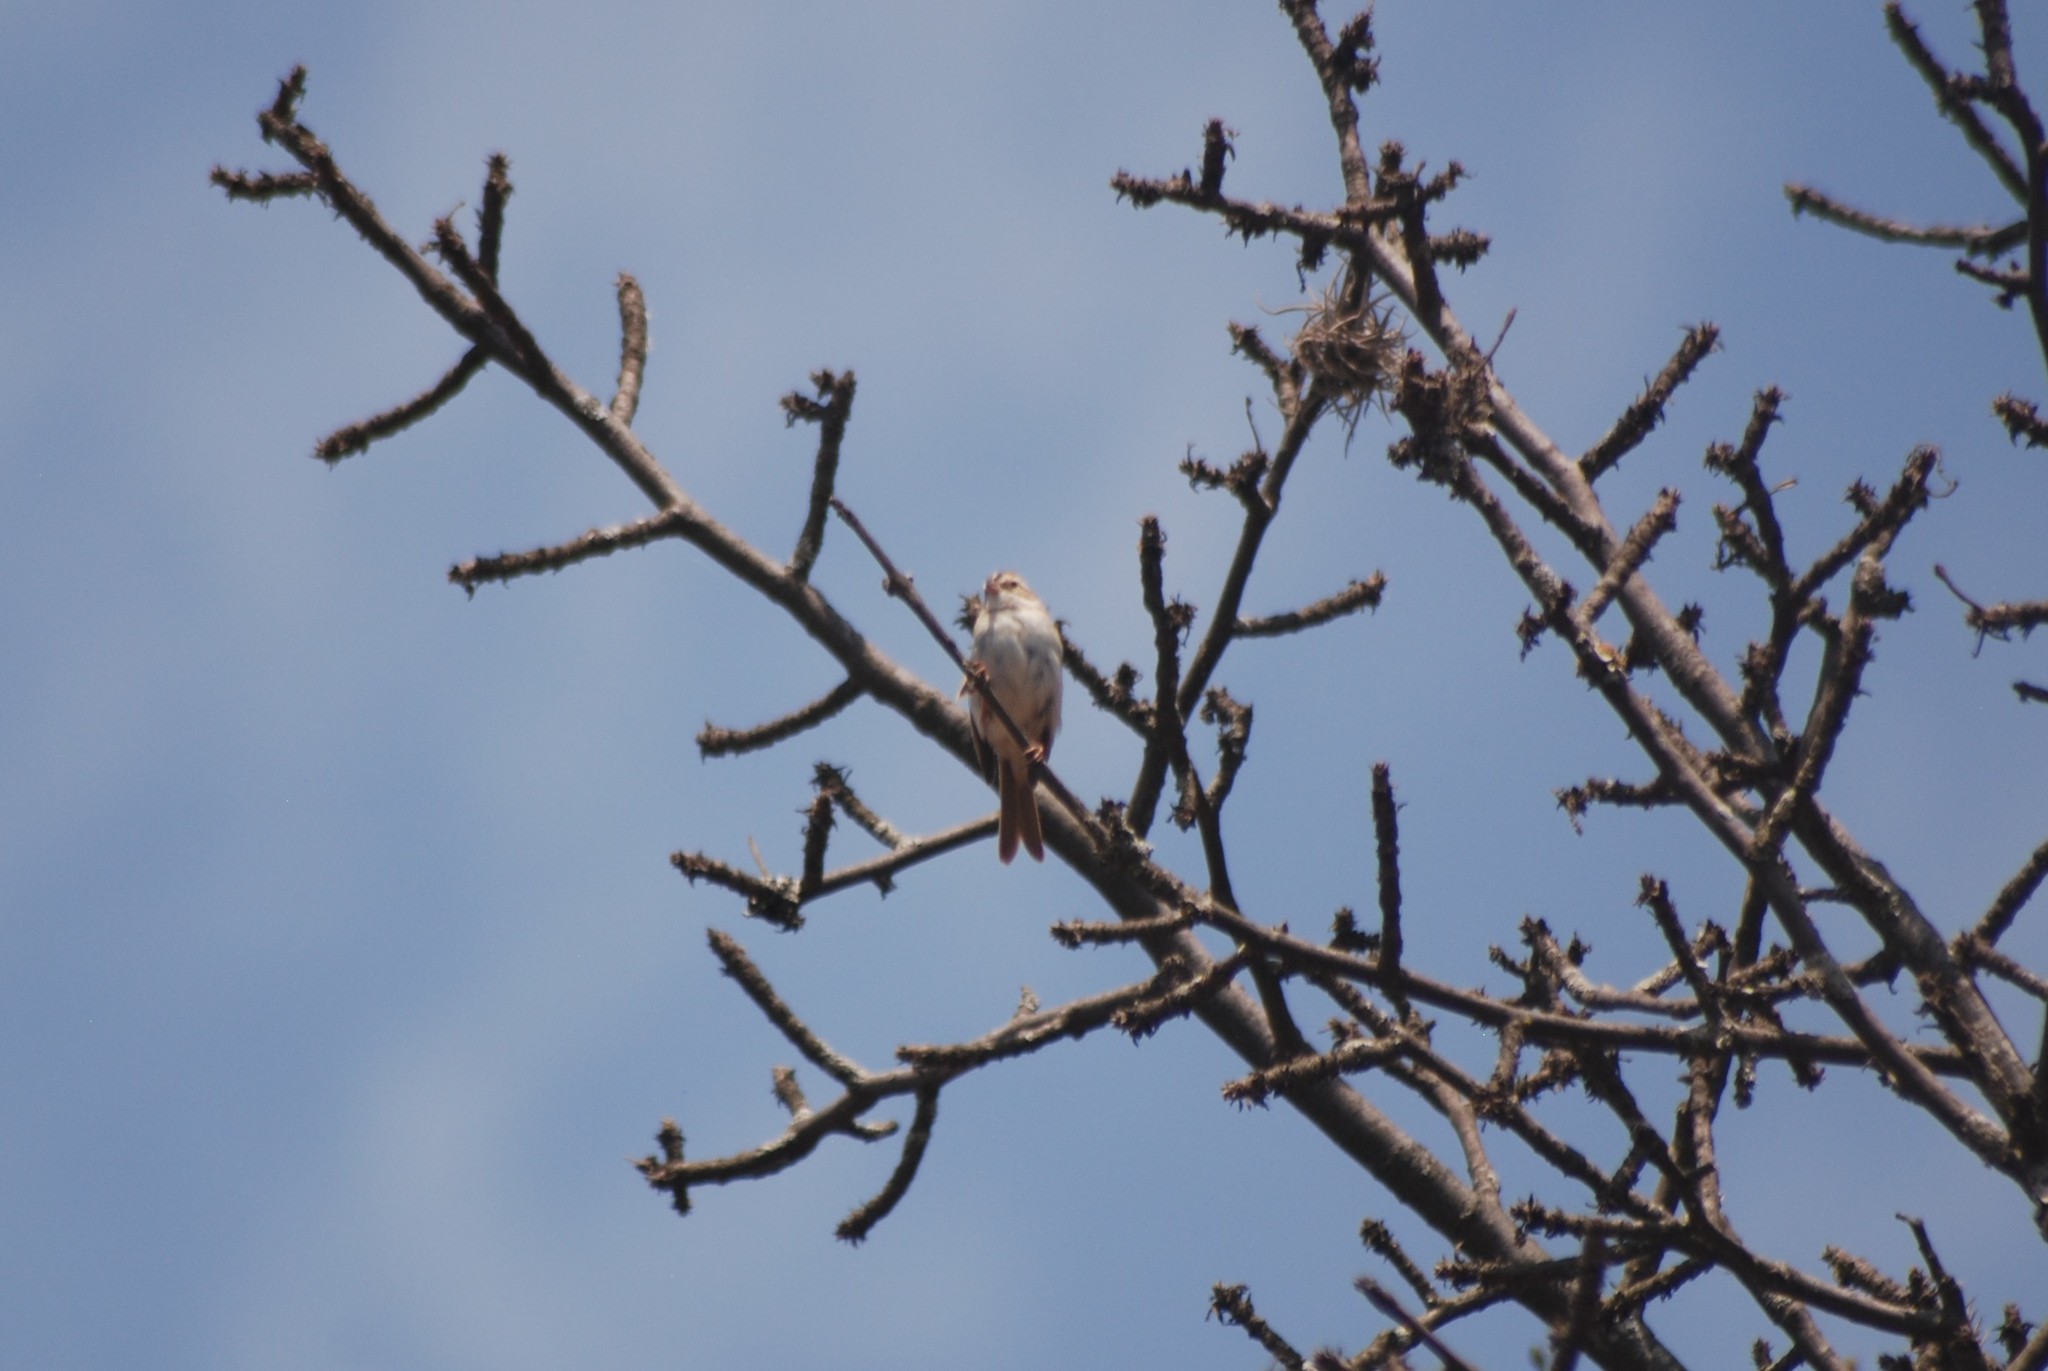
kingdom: Animalia
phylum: Chordata
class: Aves
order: Passeriformes
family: Passerellidae
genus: Spizella
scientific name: Spizella pallida
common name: Clay-colored sparrow
